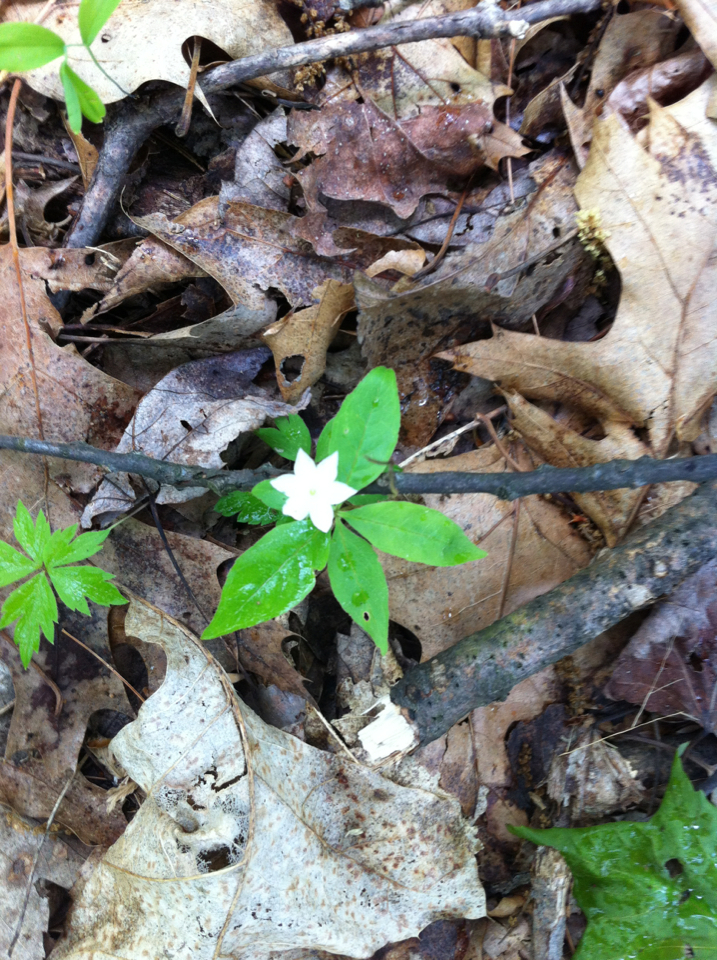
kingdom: Plantae
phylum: Tracheophyta
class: Magnoliopsida
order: Ericales
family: Primulaceae
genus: Lysimachia
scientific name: Lysimachia borealis
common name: American starflower
